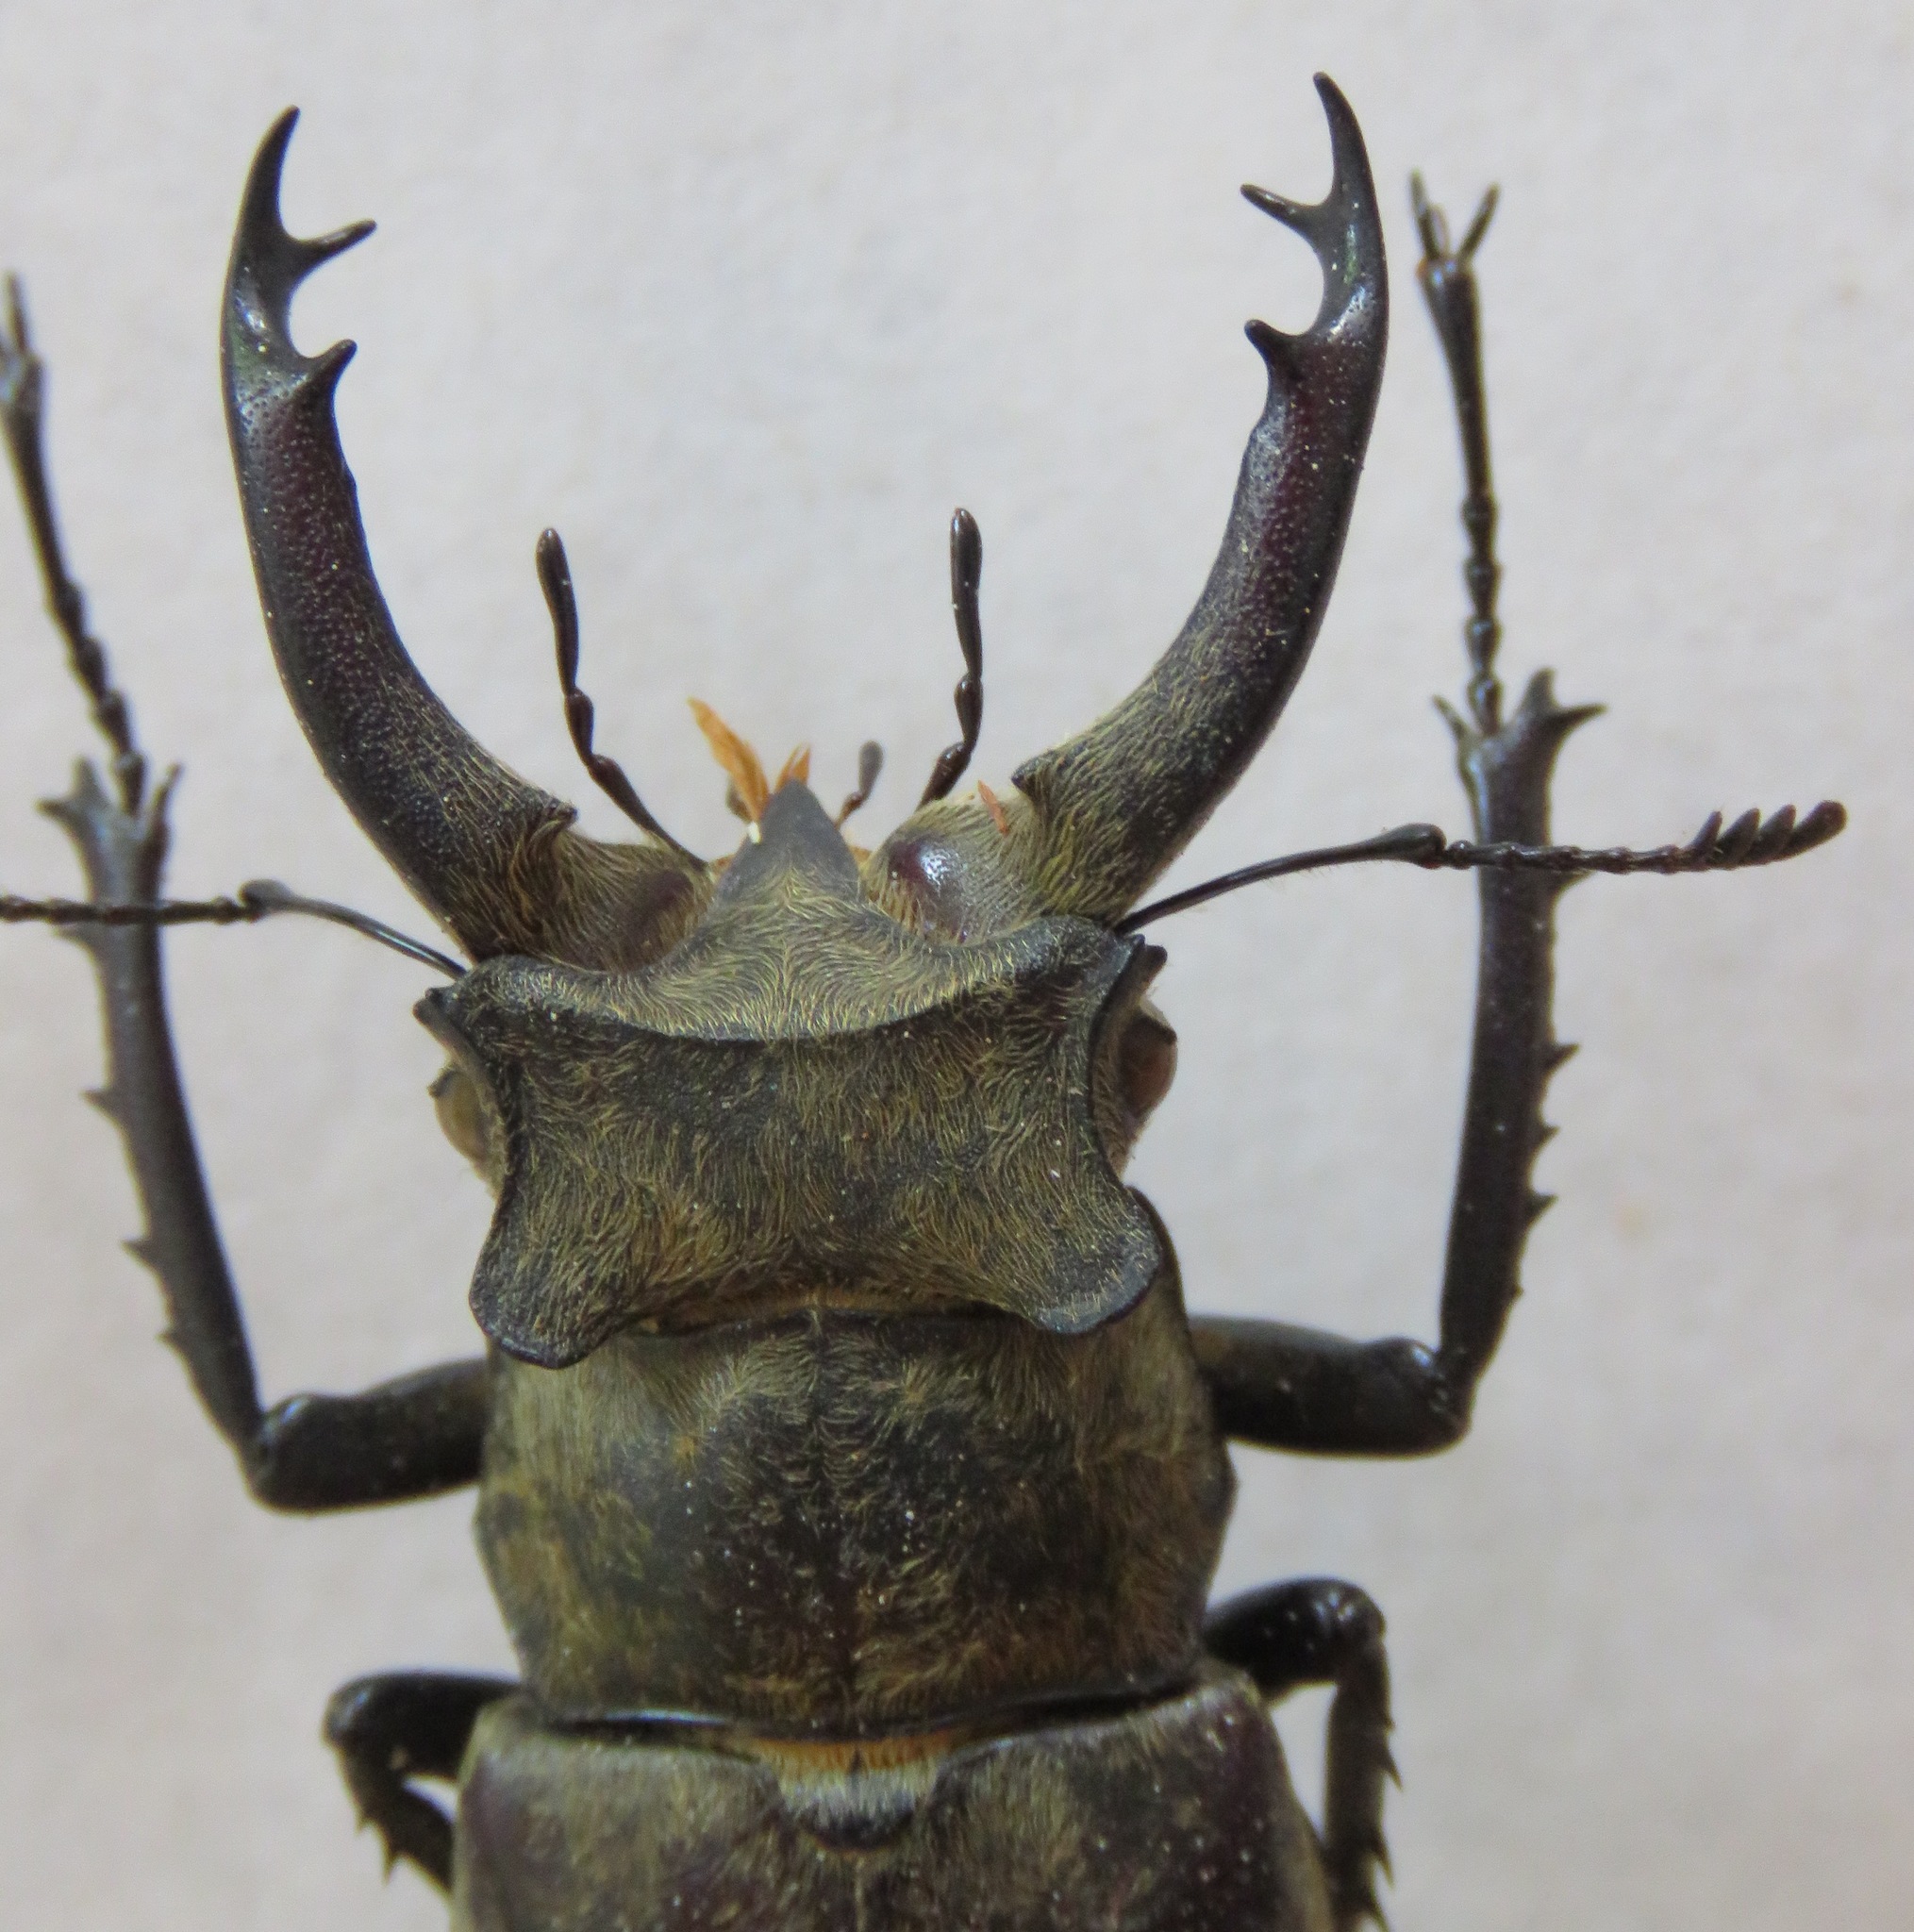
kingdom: Animalia
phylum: Arthropoda
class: Insecta
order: Coleoptera
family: Lucanidae
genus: Lucanus
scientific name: Lucanus sericeus
